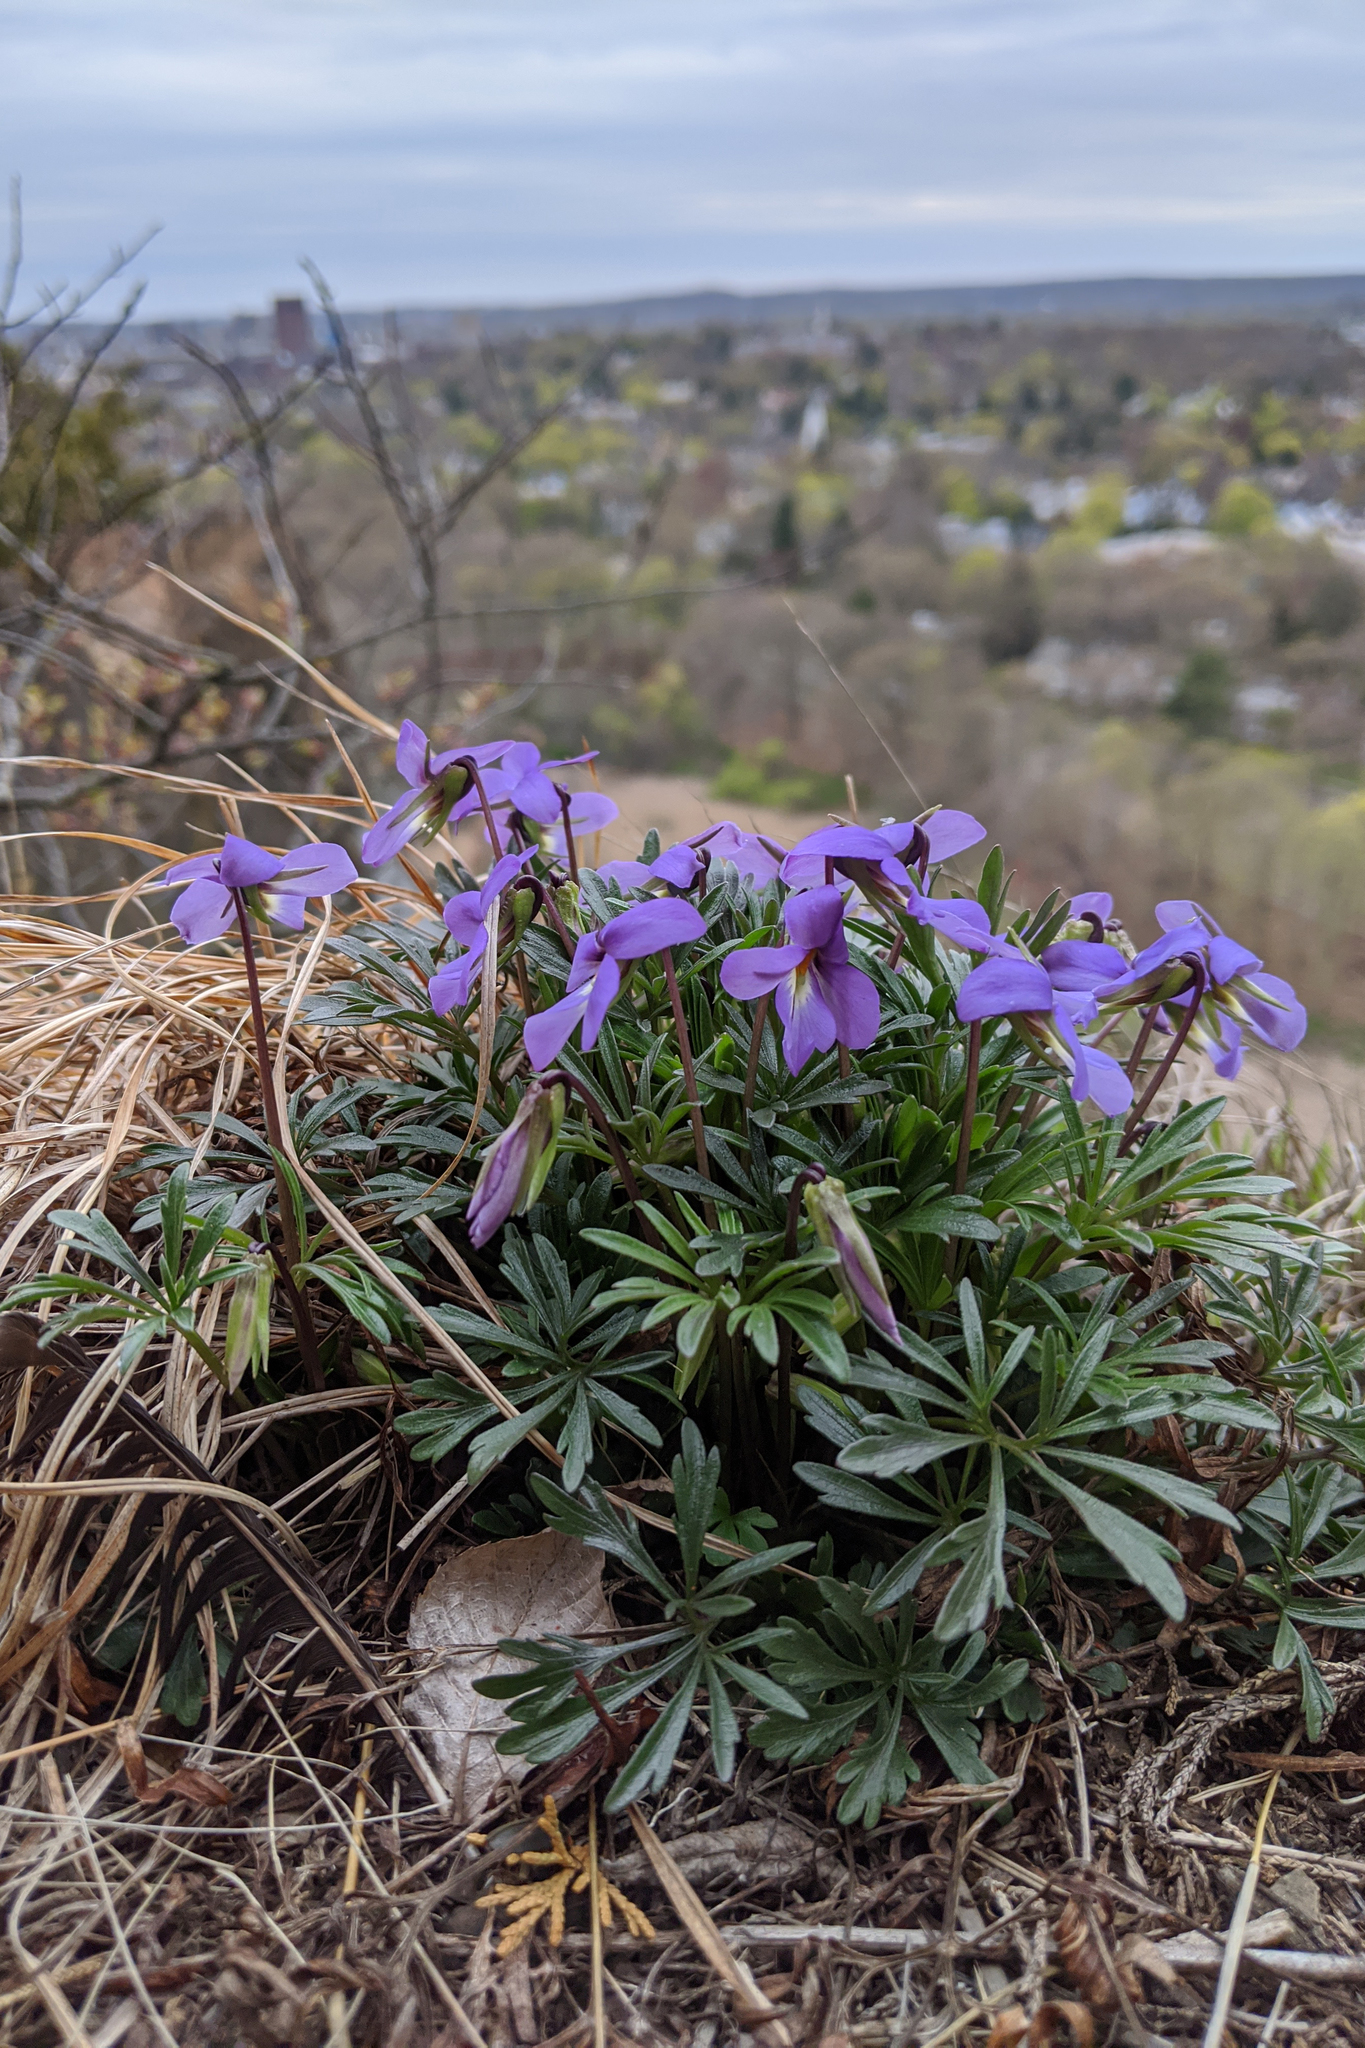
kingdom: Plantae
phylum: Tracheophyta
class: Magnoliopsida
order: Malpighiales
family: Violaceae
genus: Viola
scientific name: Viola pedata
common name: Pansy violet
